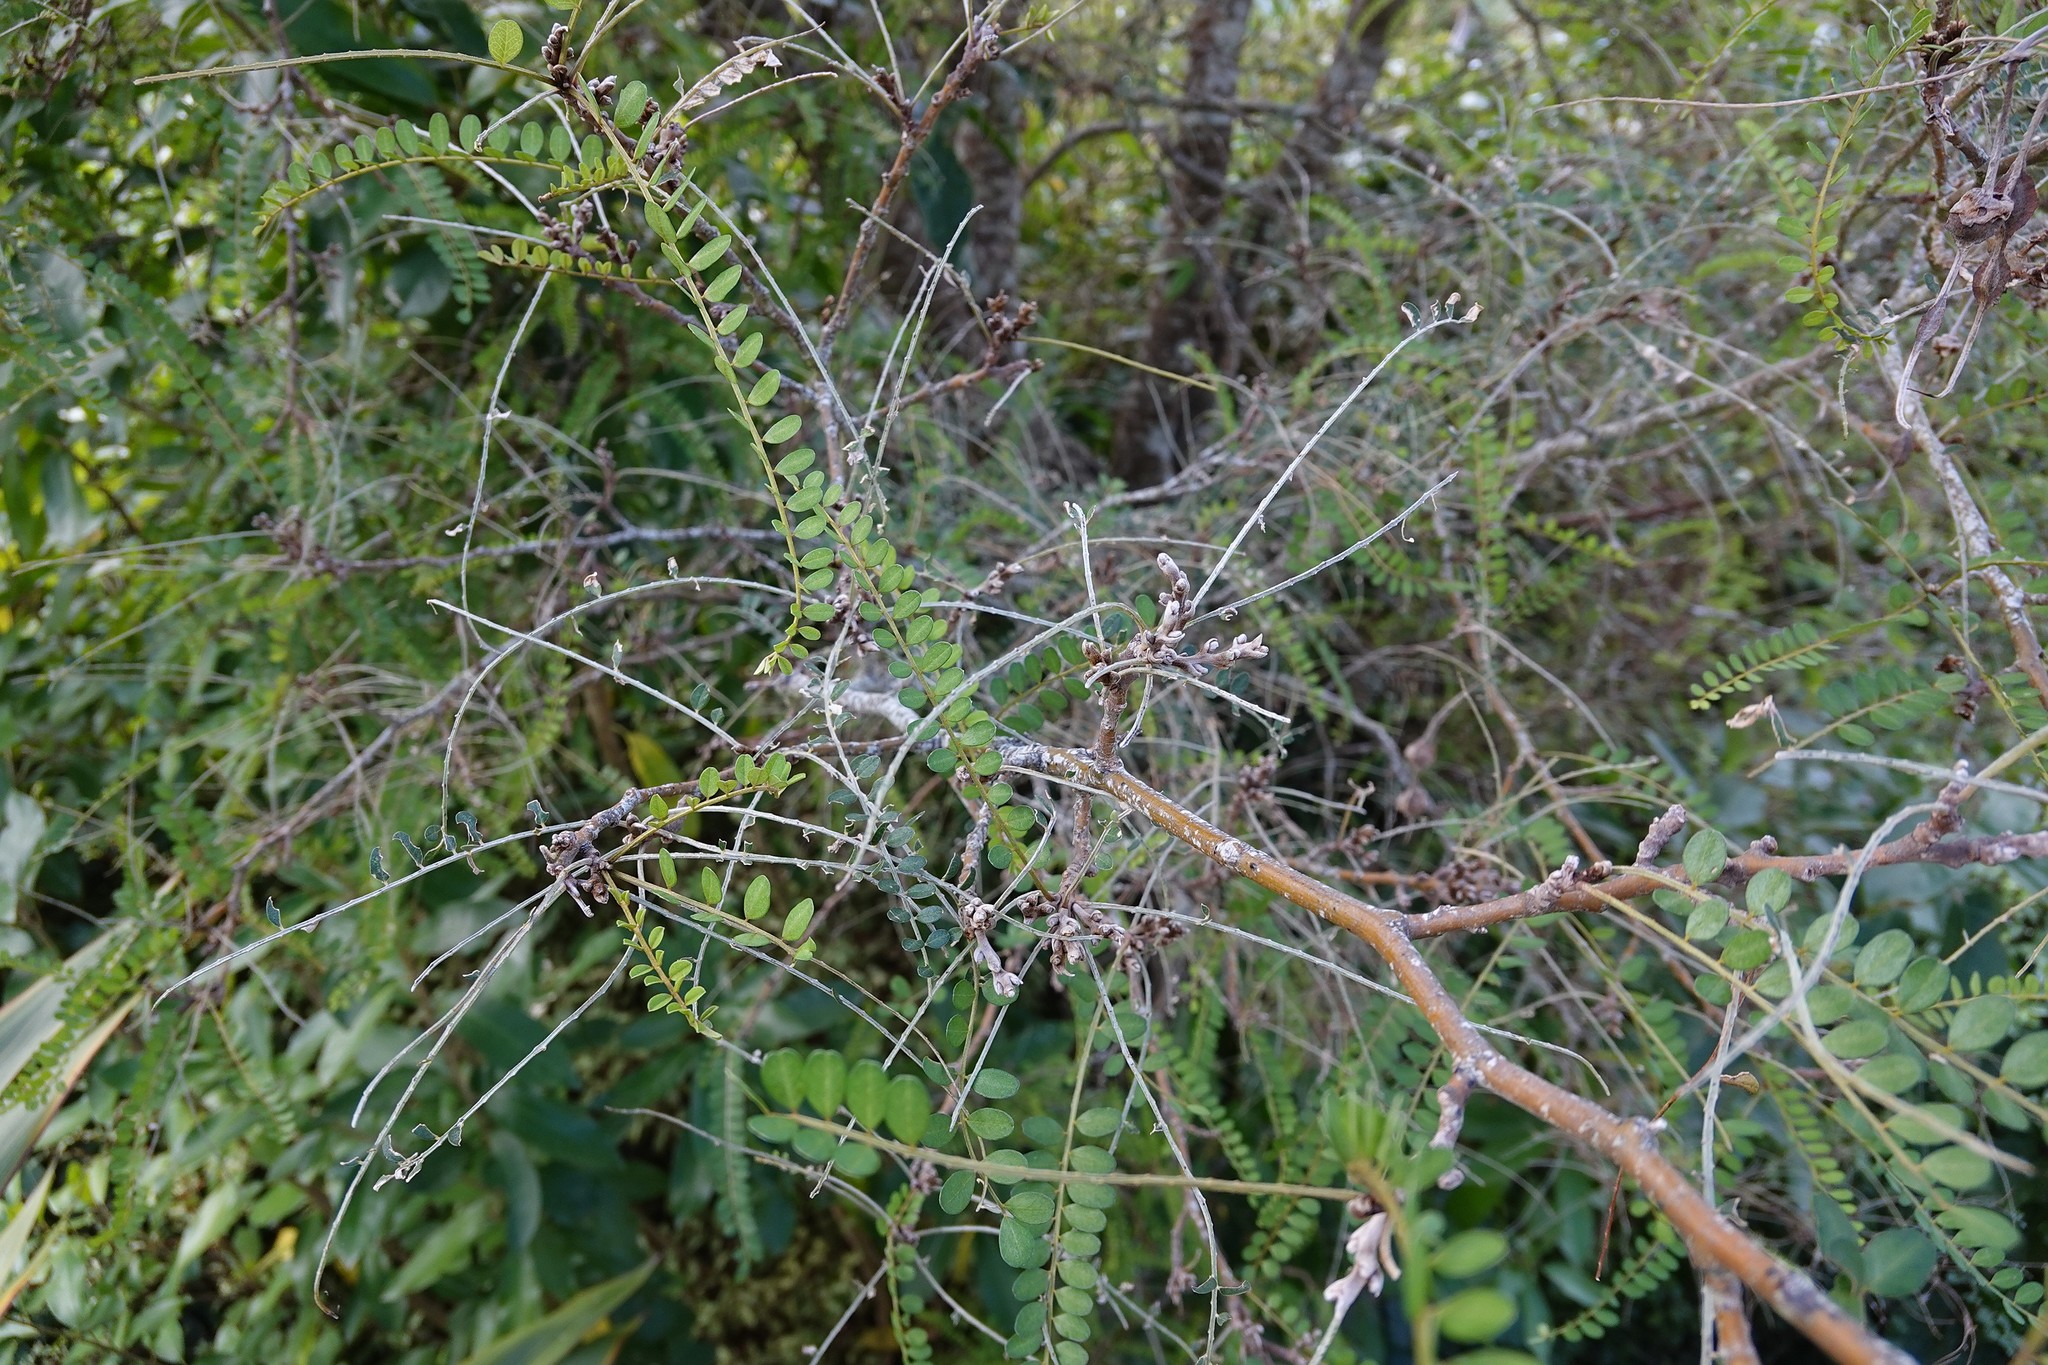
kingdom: Plantae
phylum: Tracheophyta
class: Magnoliopsida
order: Fabales
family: Fabaceae
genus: Sophora
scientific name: Sophora microphylla
